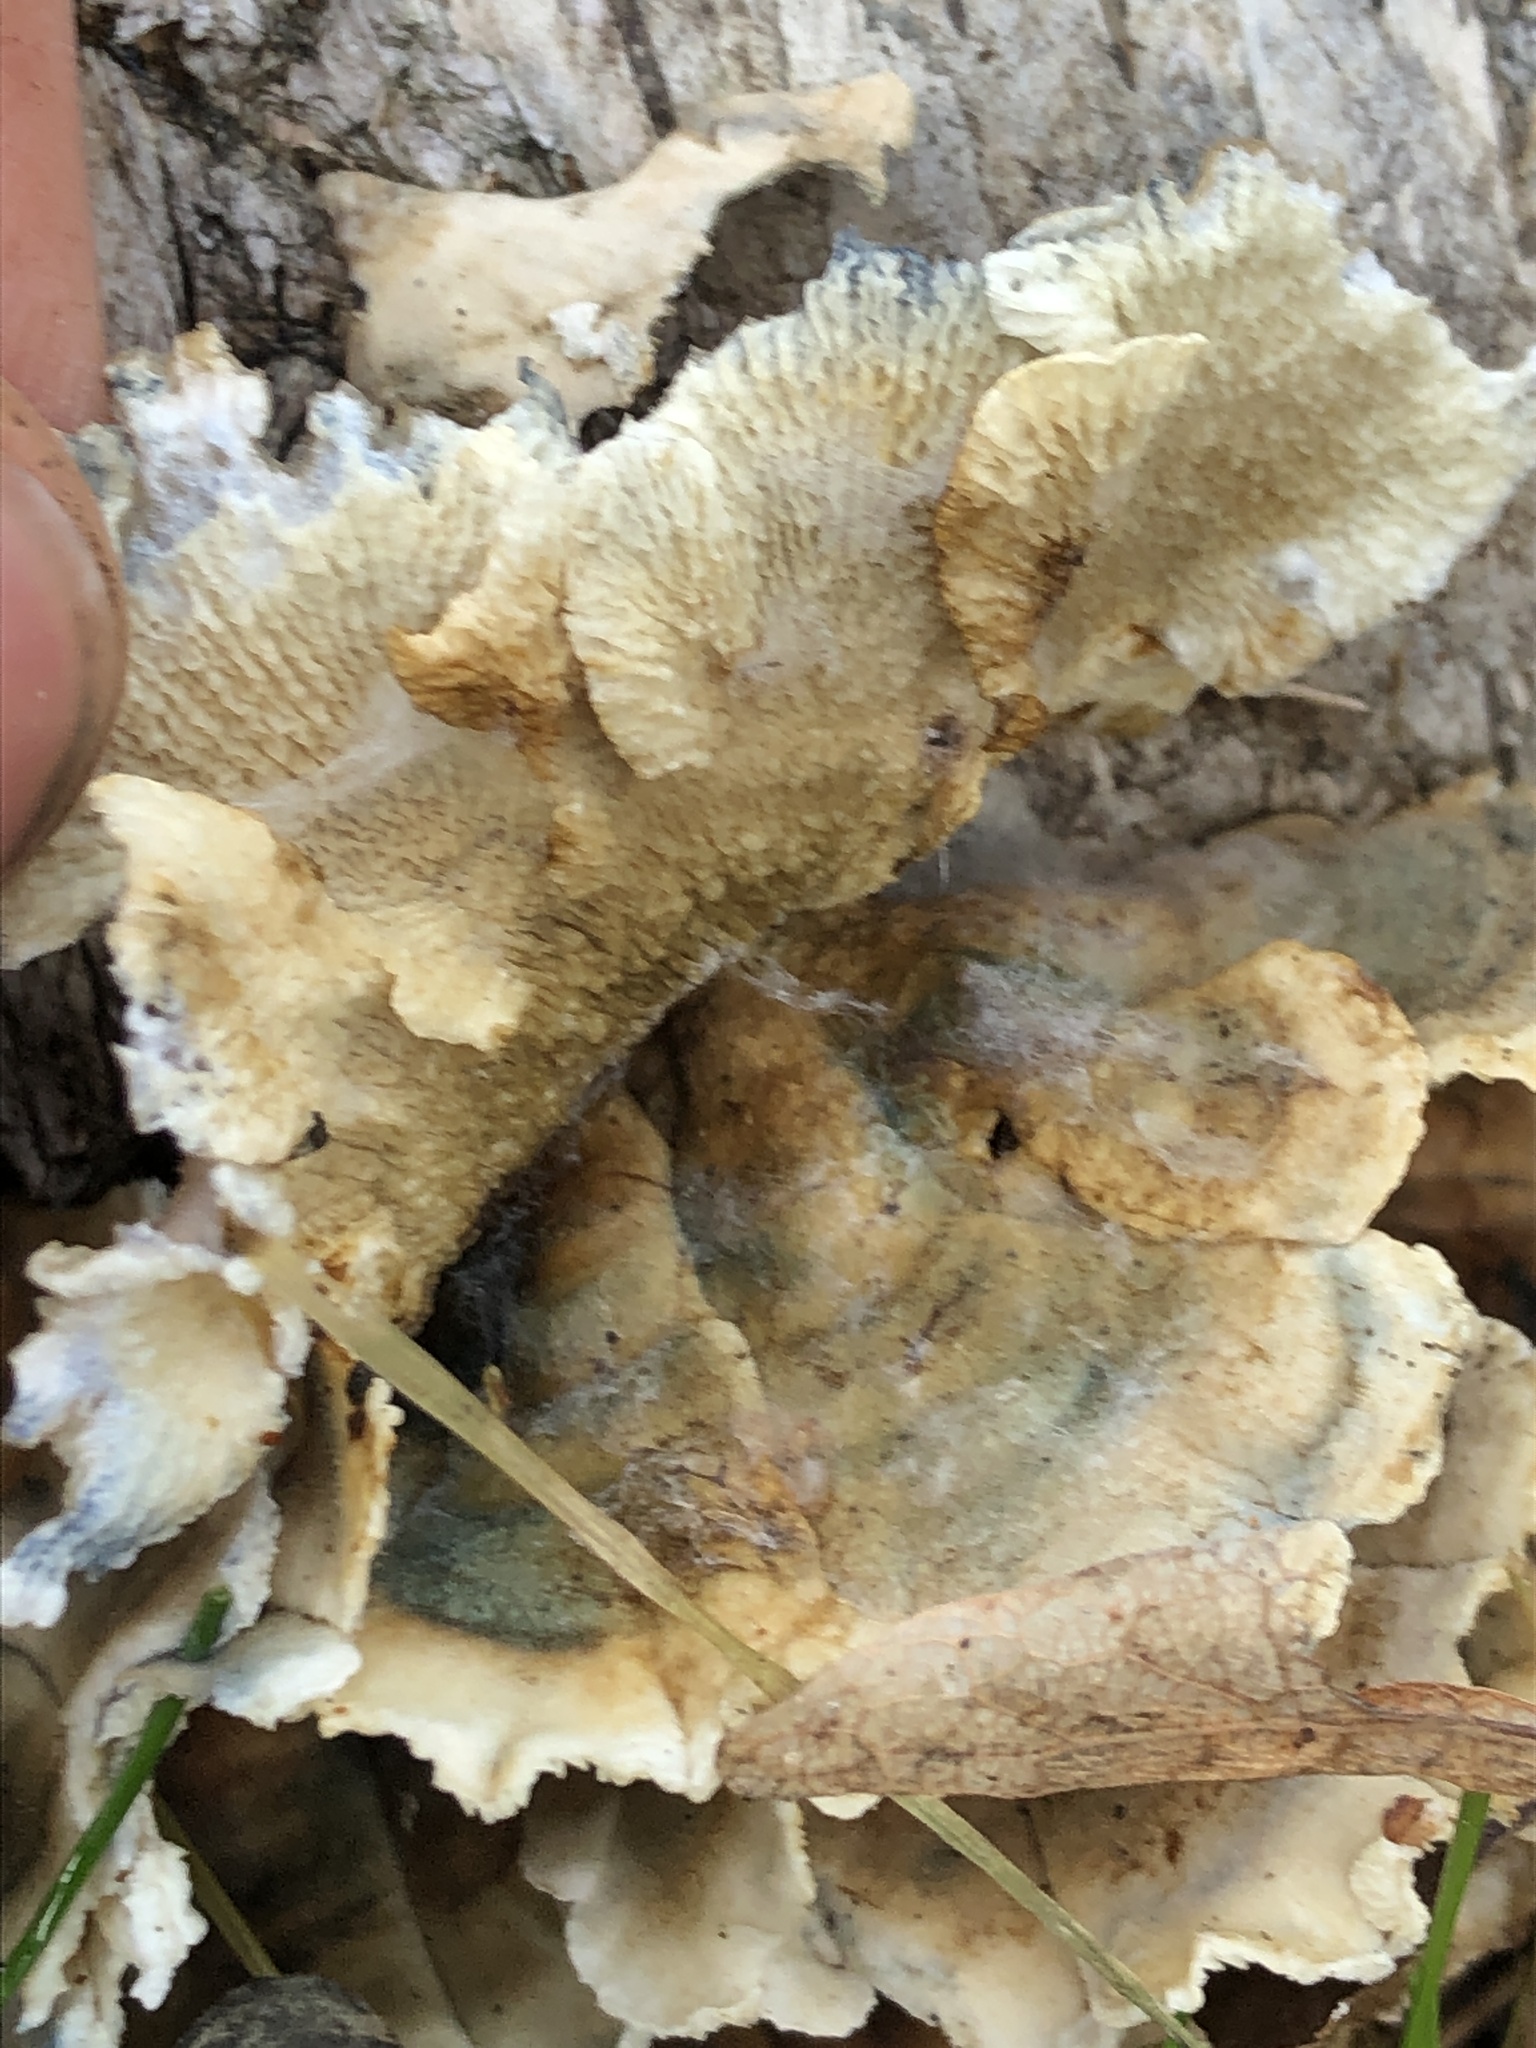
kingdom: Fungi
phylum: Basidiomycota
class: Agaricomycetes
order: Amylocorticiales
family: Amylocorticiaceae
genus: Plicaturopsis
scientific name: Plicaturopsis crispa
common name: Crimped gill
